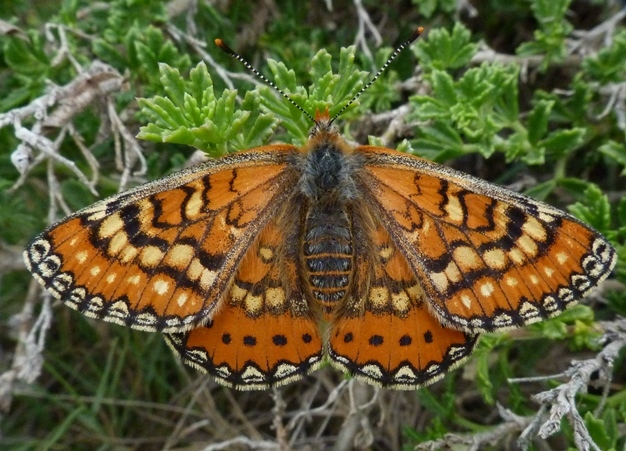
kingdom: Animalia
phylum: Arthropoda
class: Insecta
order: Lepidoptera
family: Nymphalidae
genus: Euphydryas
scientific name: Euphydryas desfontainii
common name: Spanish fritillary
